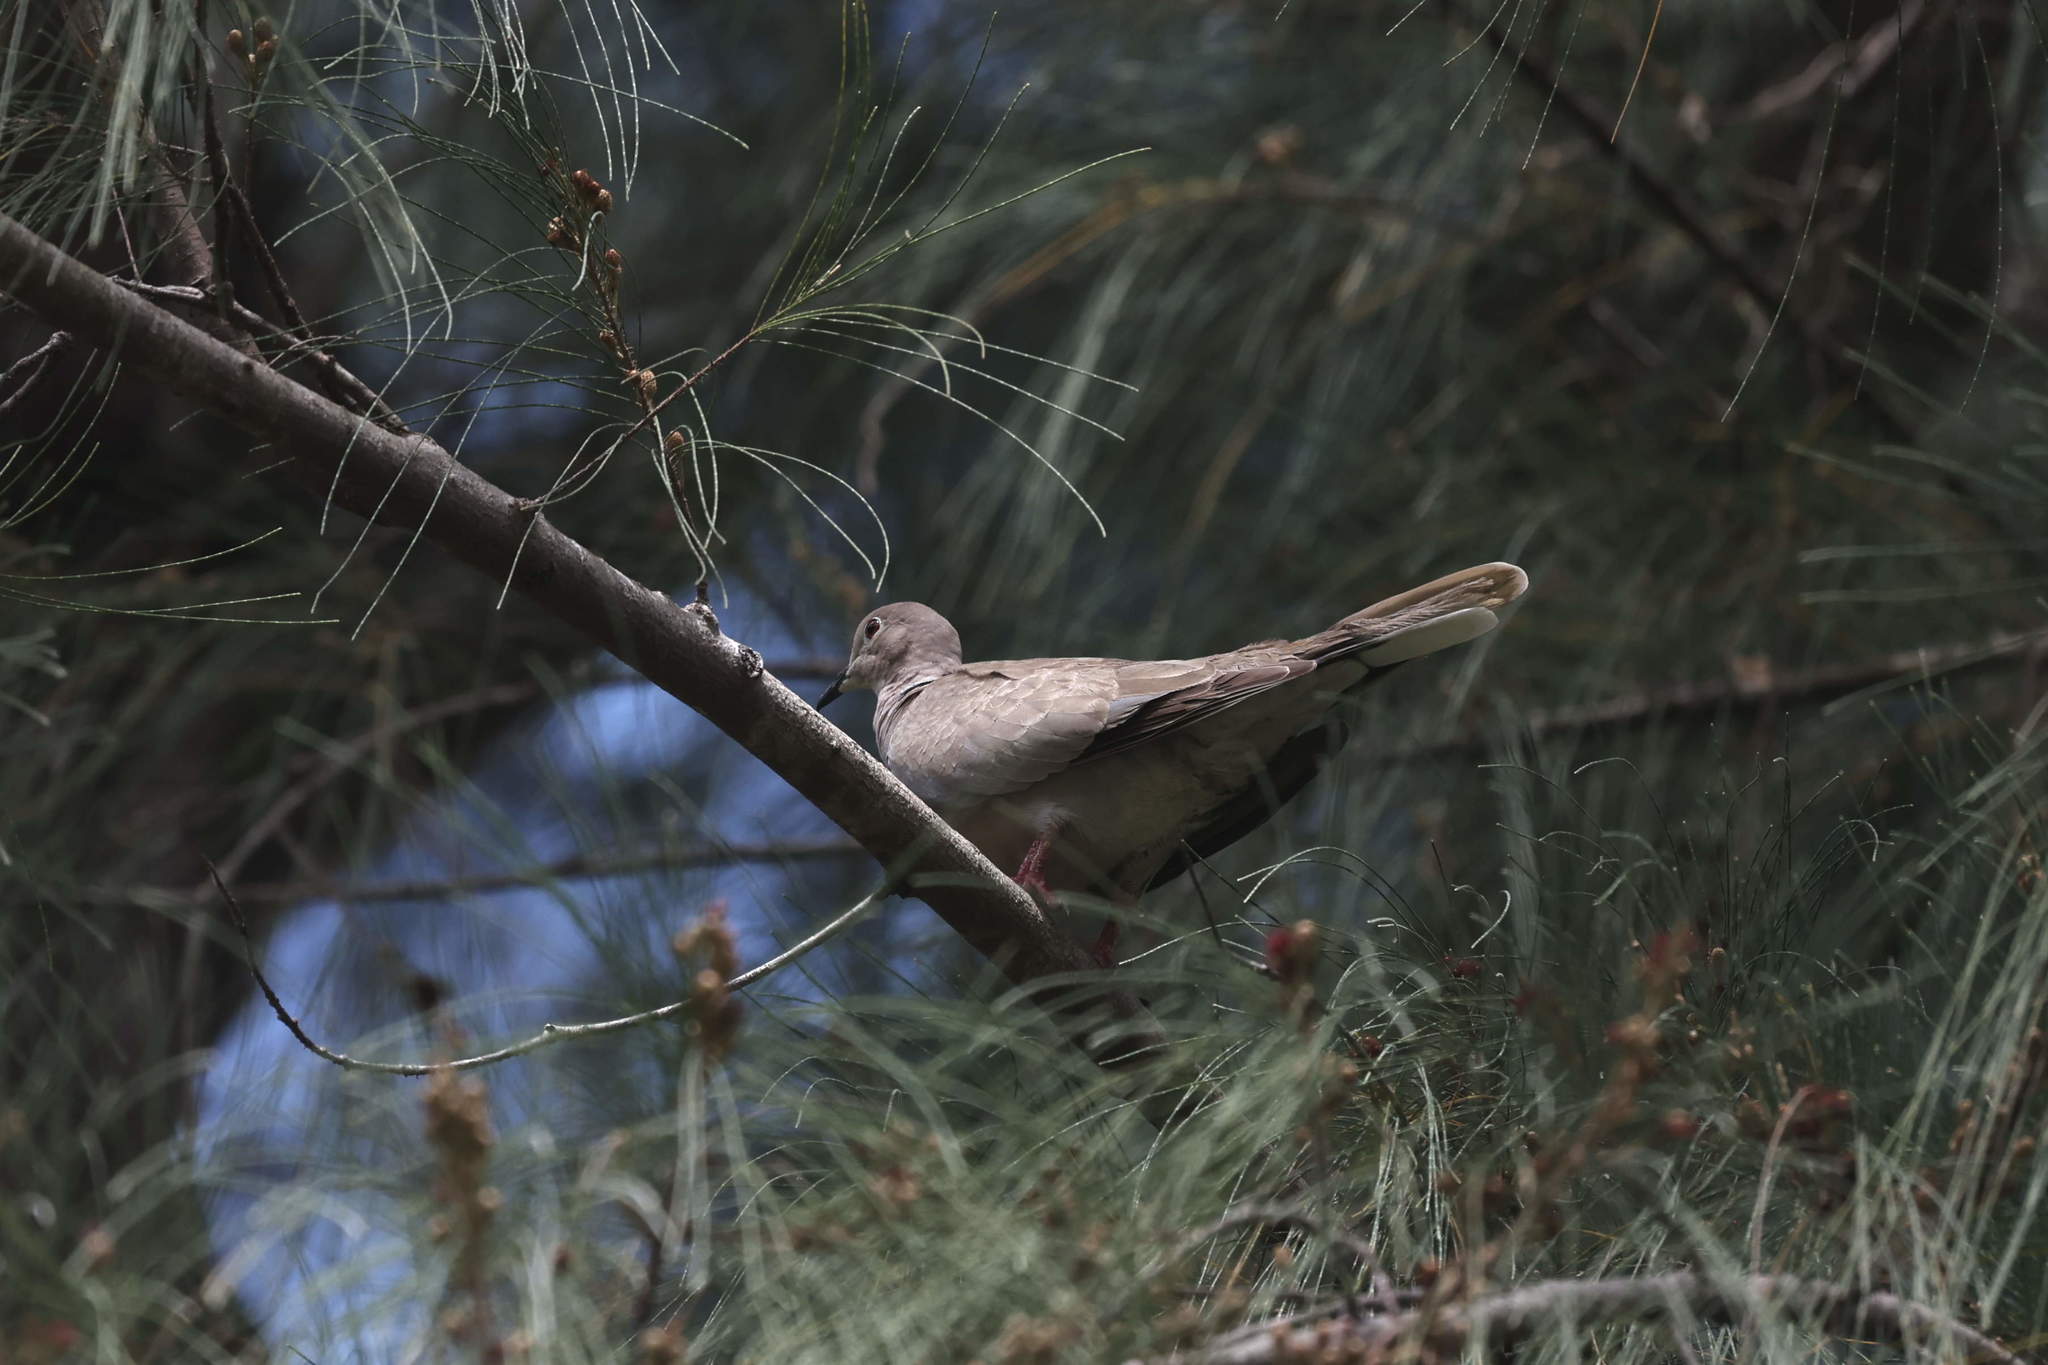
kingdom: Animalia
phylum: Chordata
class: Aves
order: Columbiformes
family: Columbidae
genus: Streptopelia
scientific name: Streptopelia decaocto
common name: Eurasian collared dove
